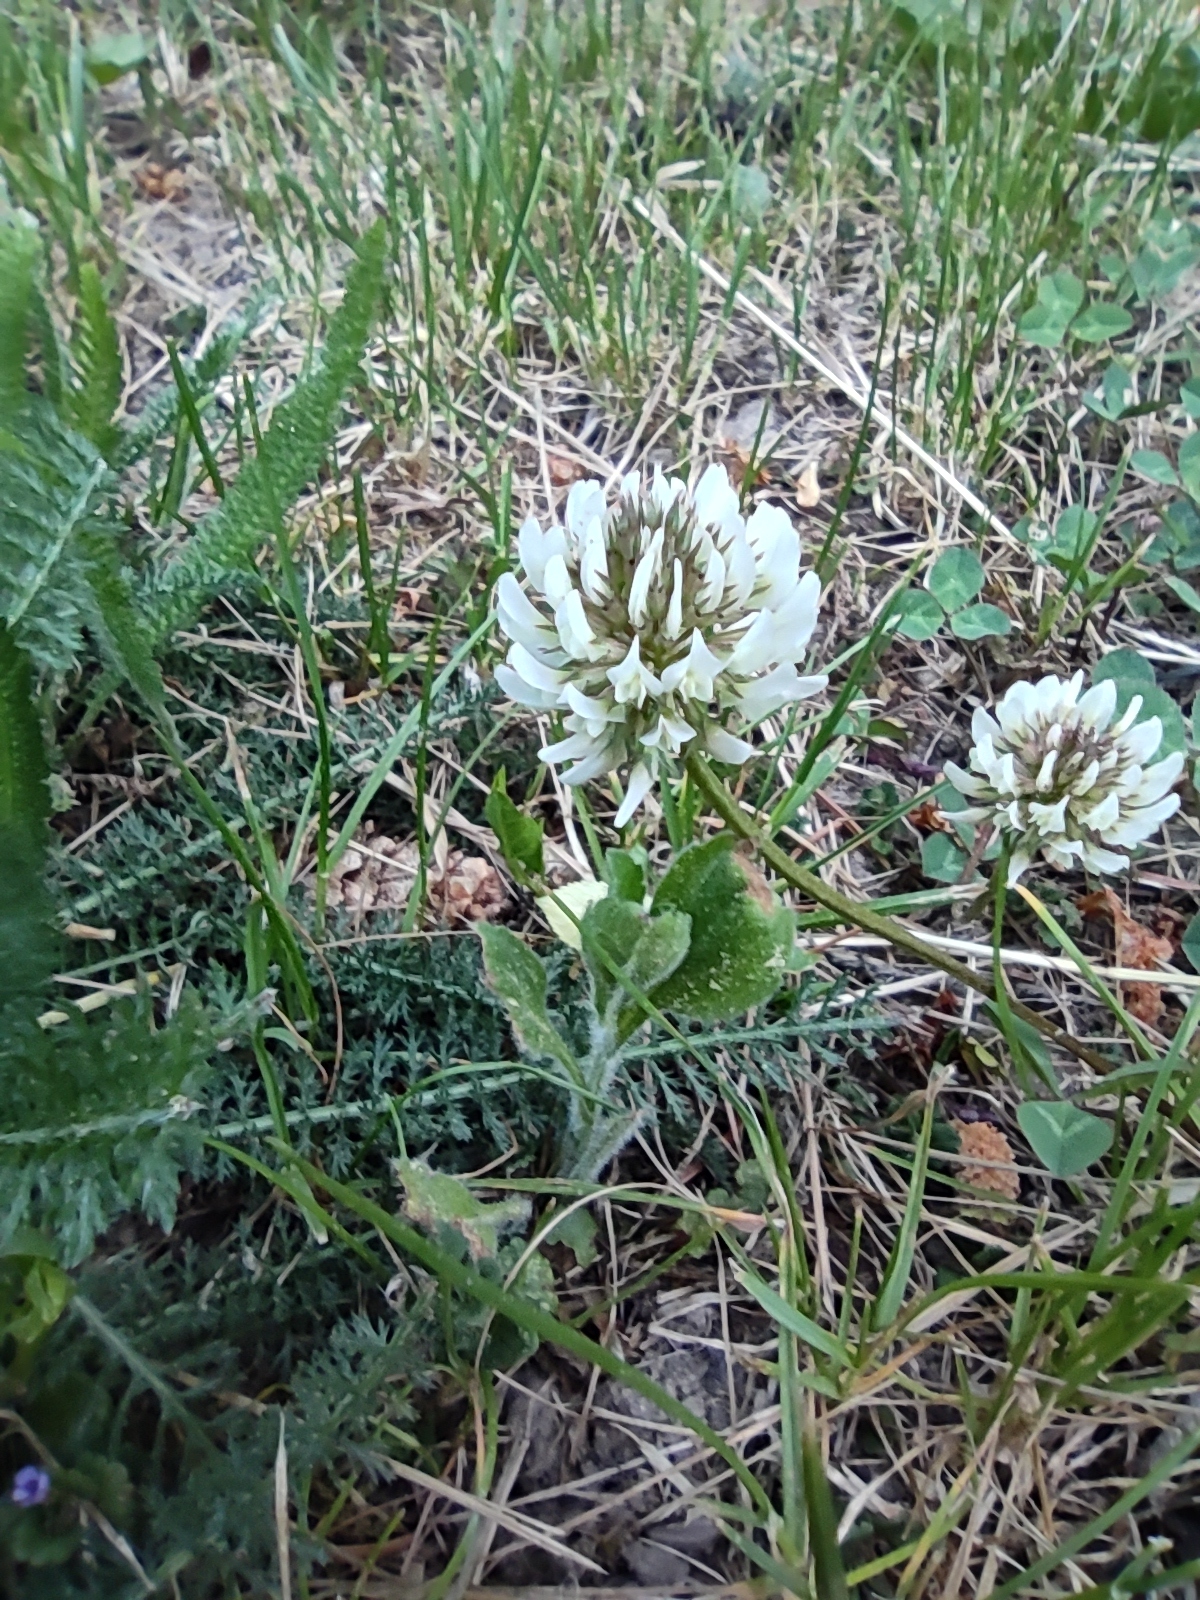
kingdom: Plantae
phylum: Tracheophyta
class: Magnoliopsida
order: Fabales
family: Fabaceae
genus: Trifolium
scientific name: Trifolium repens
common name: White clover
